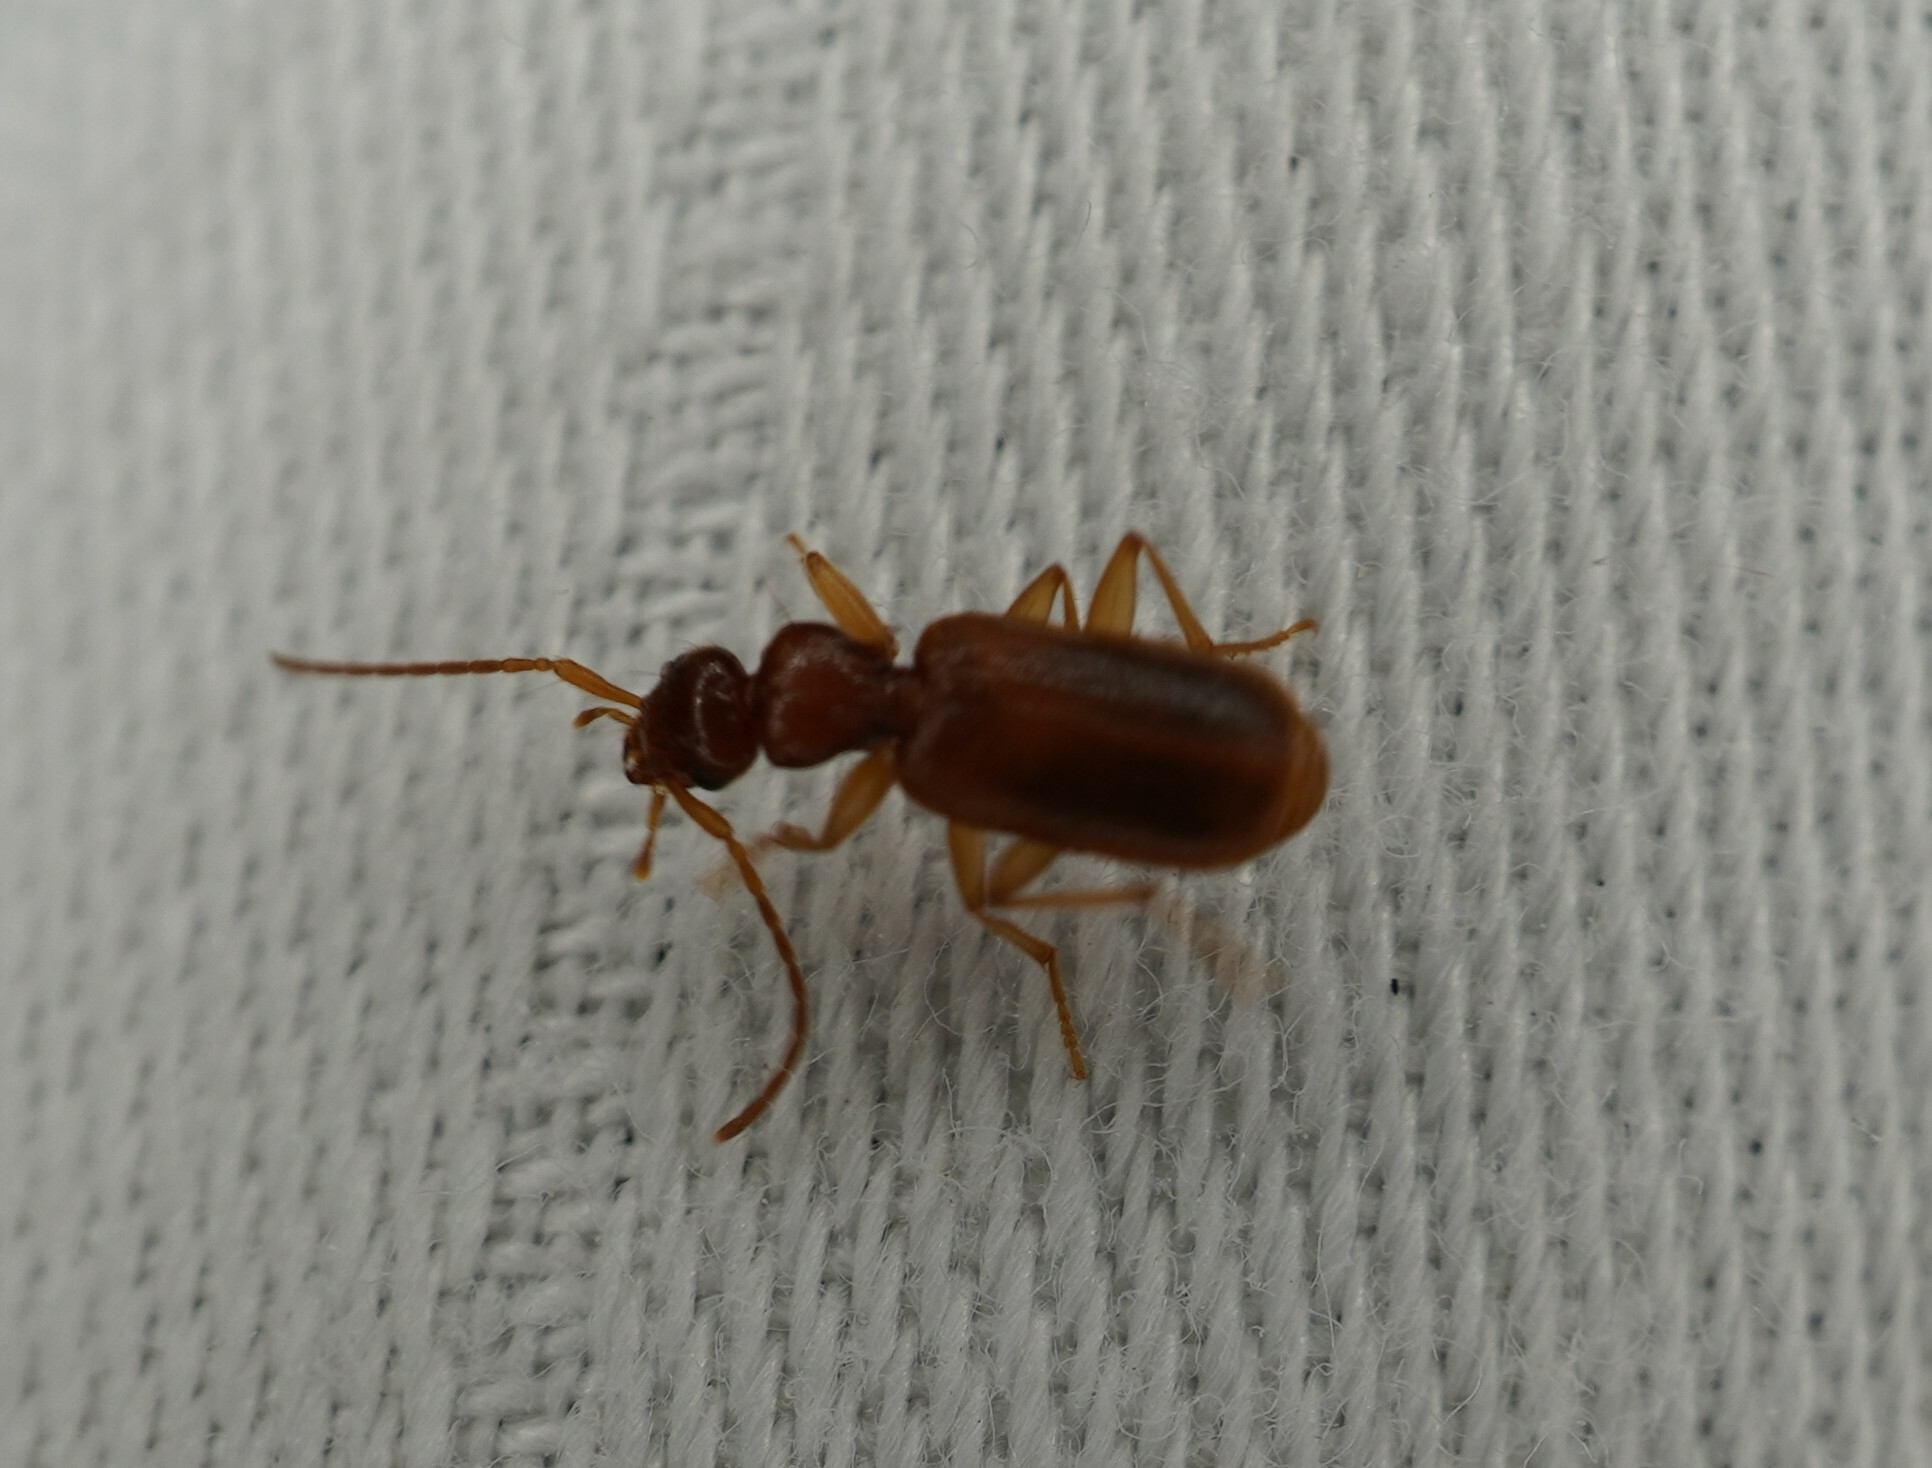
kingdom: Animalia
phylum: Arthropoda
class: Insecta
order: Coleoptera
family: Carabidae
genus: Zuphioides
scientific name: Zuphioides americanum
